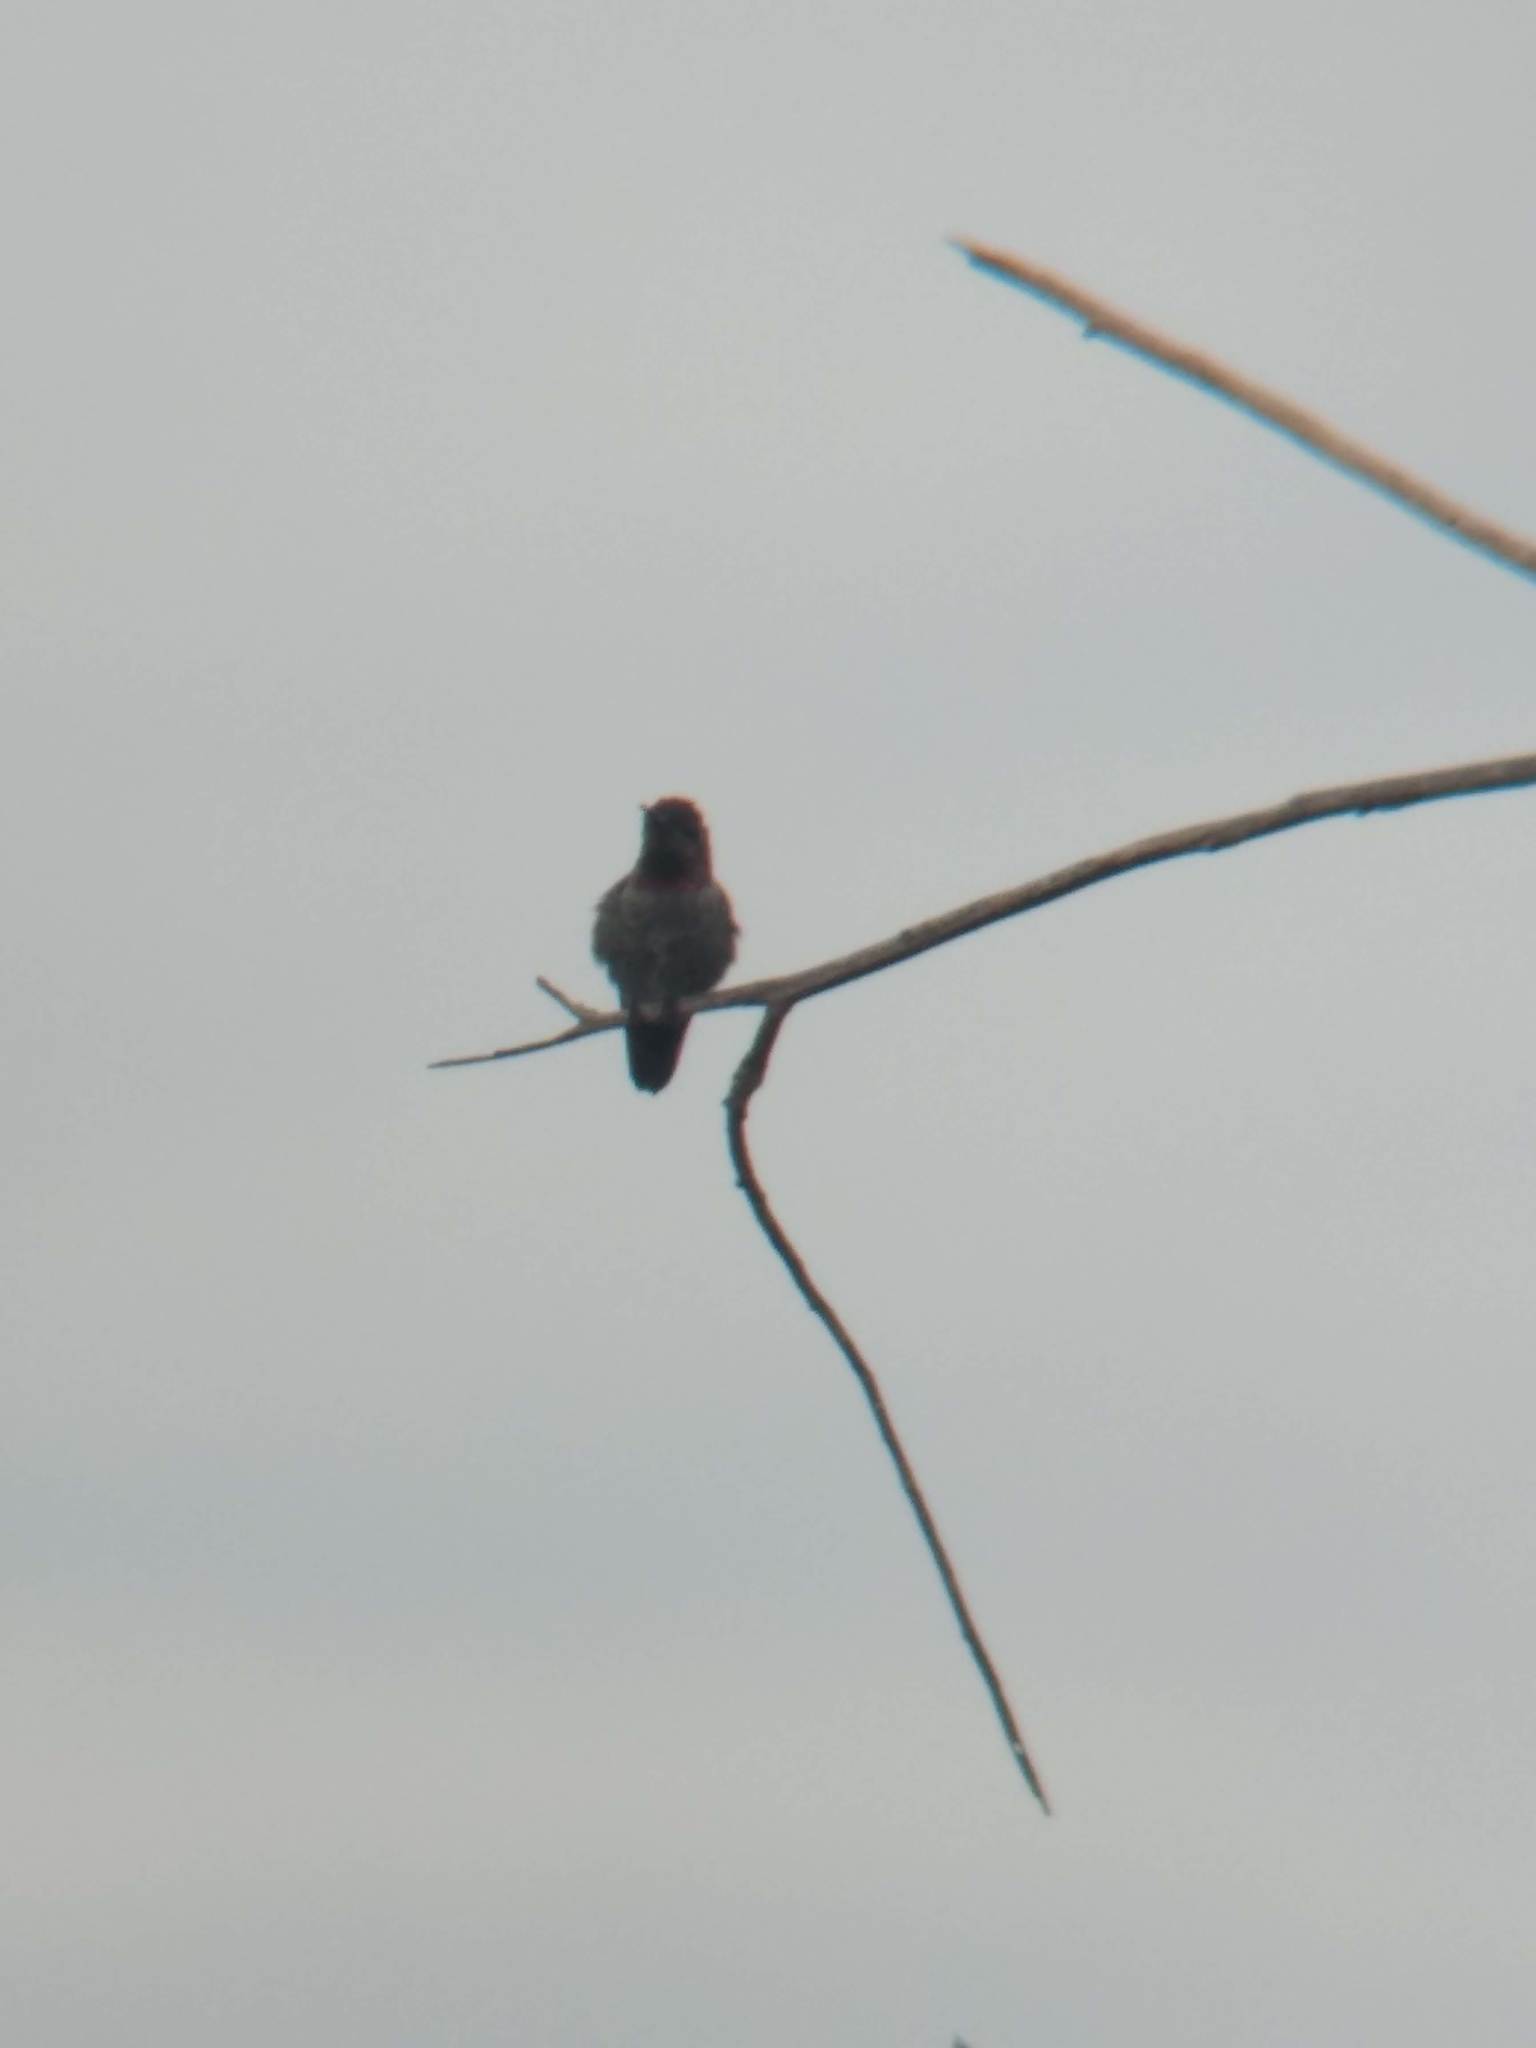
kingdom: Animalia
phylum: Chordata
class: Aves
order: Apodiformes
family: Trochilidae
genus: Calypte
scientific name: Calypte anna
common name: Anna's hummingbird
